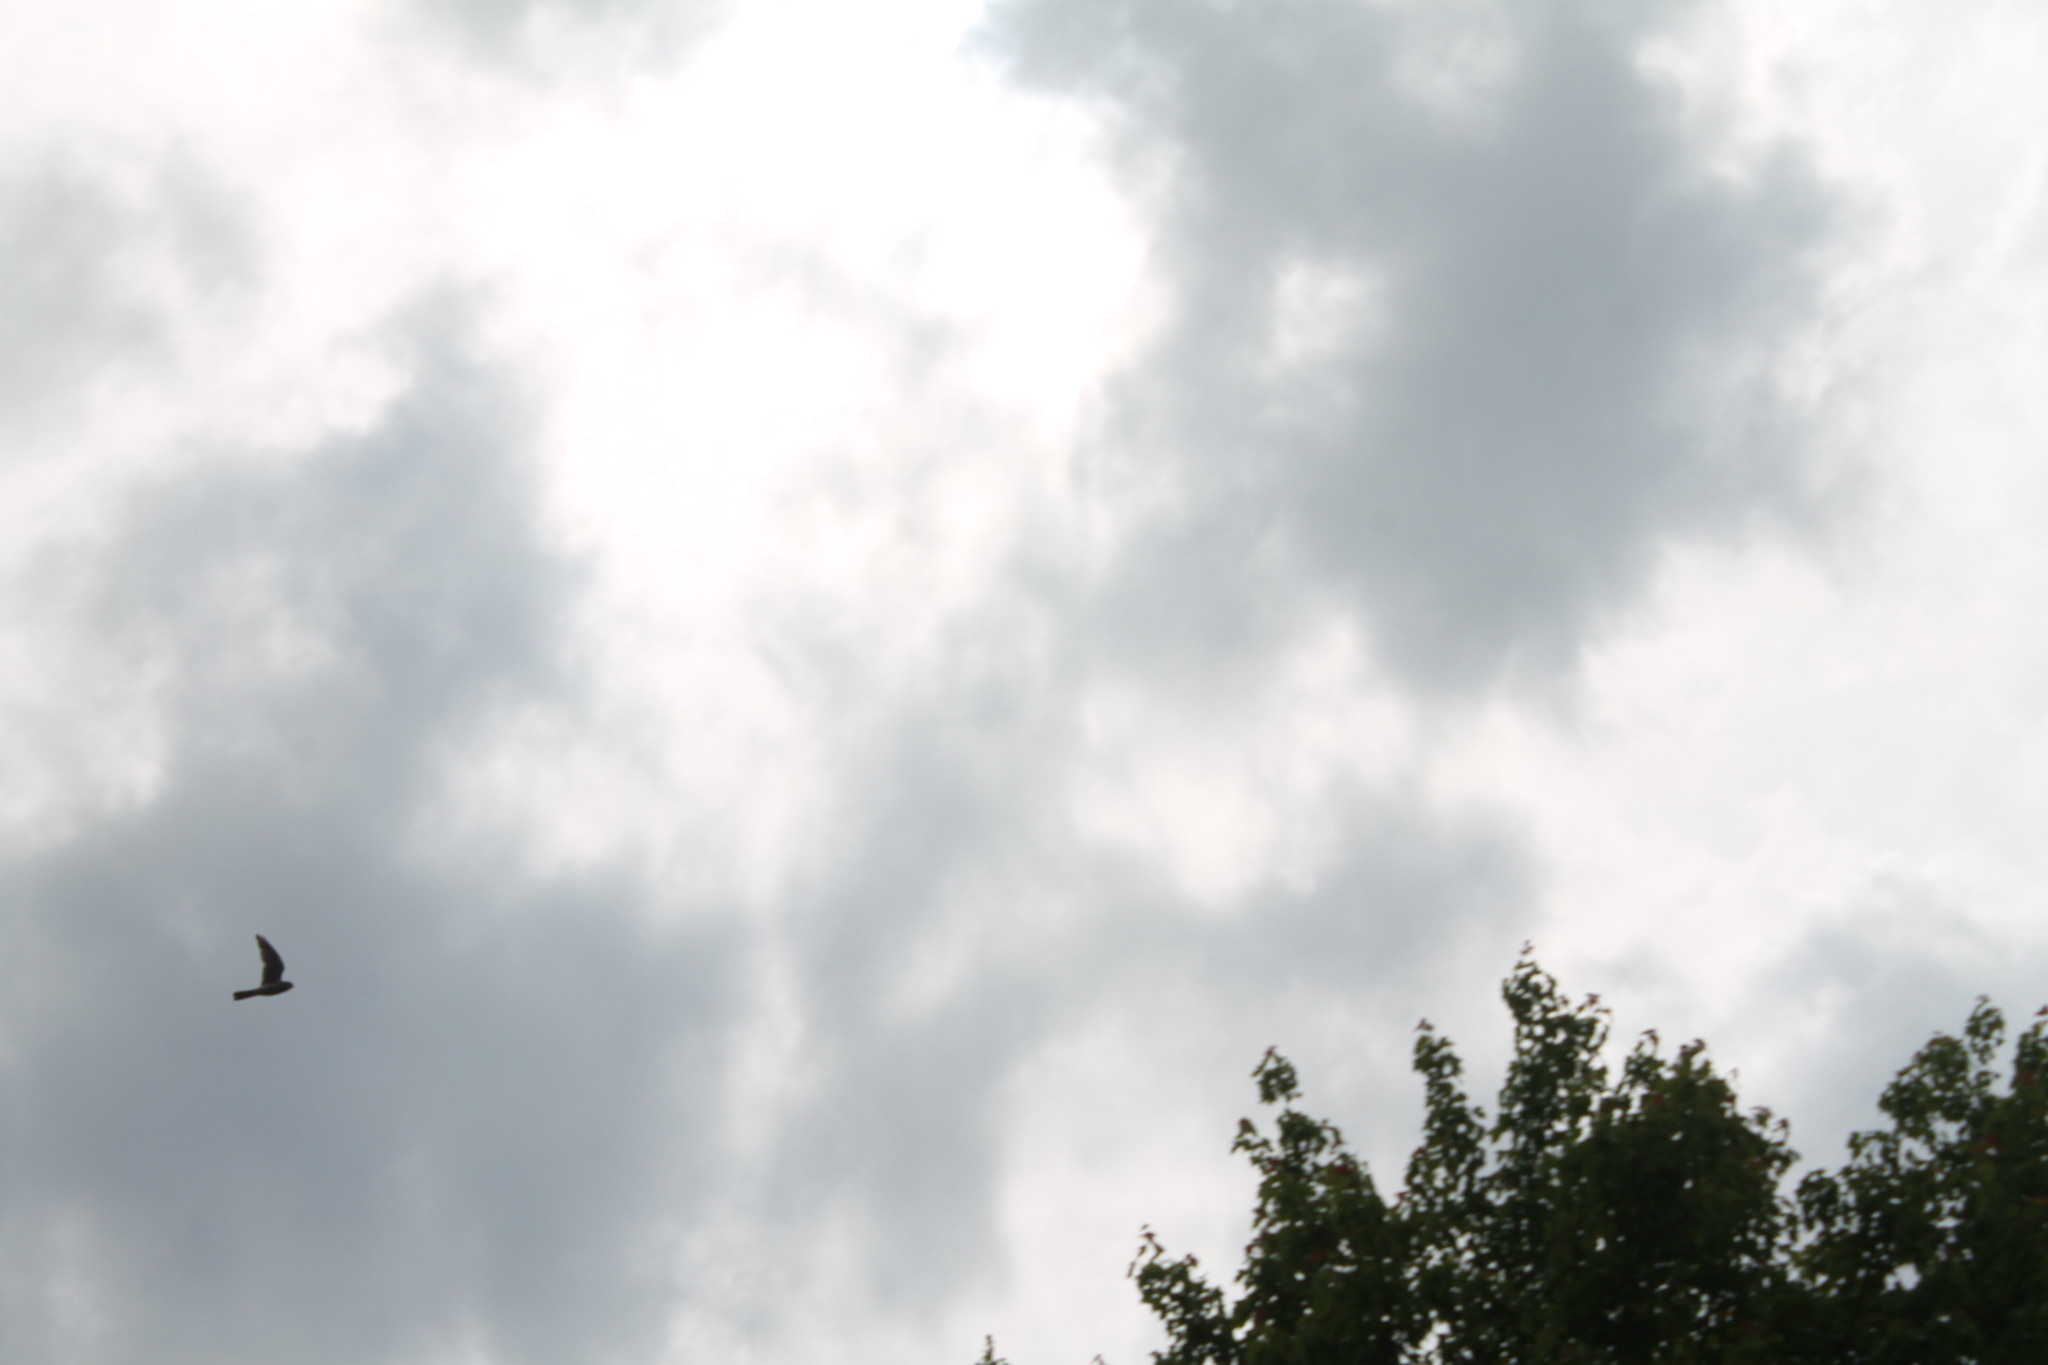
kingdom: Animalia
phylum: Chordata
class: Aves
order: Falconiformes
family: Falconidae
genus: Falco
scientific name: Falco sparverius
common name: American kestrel
